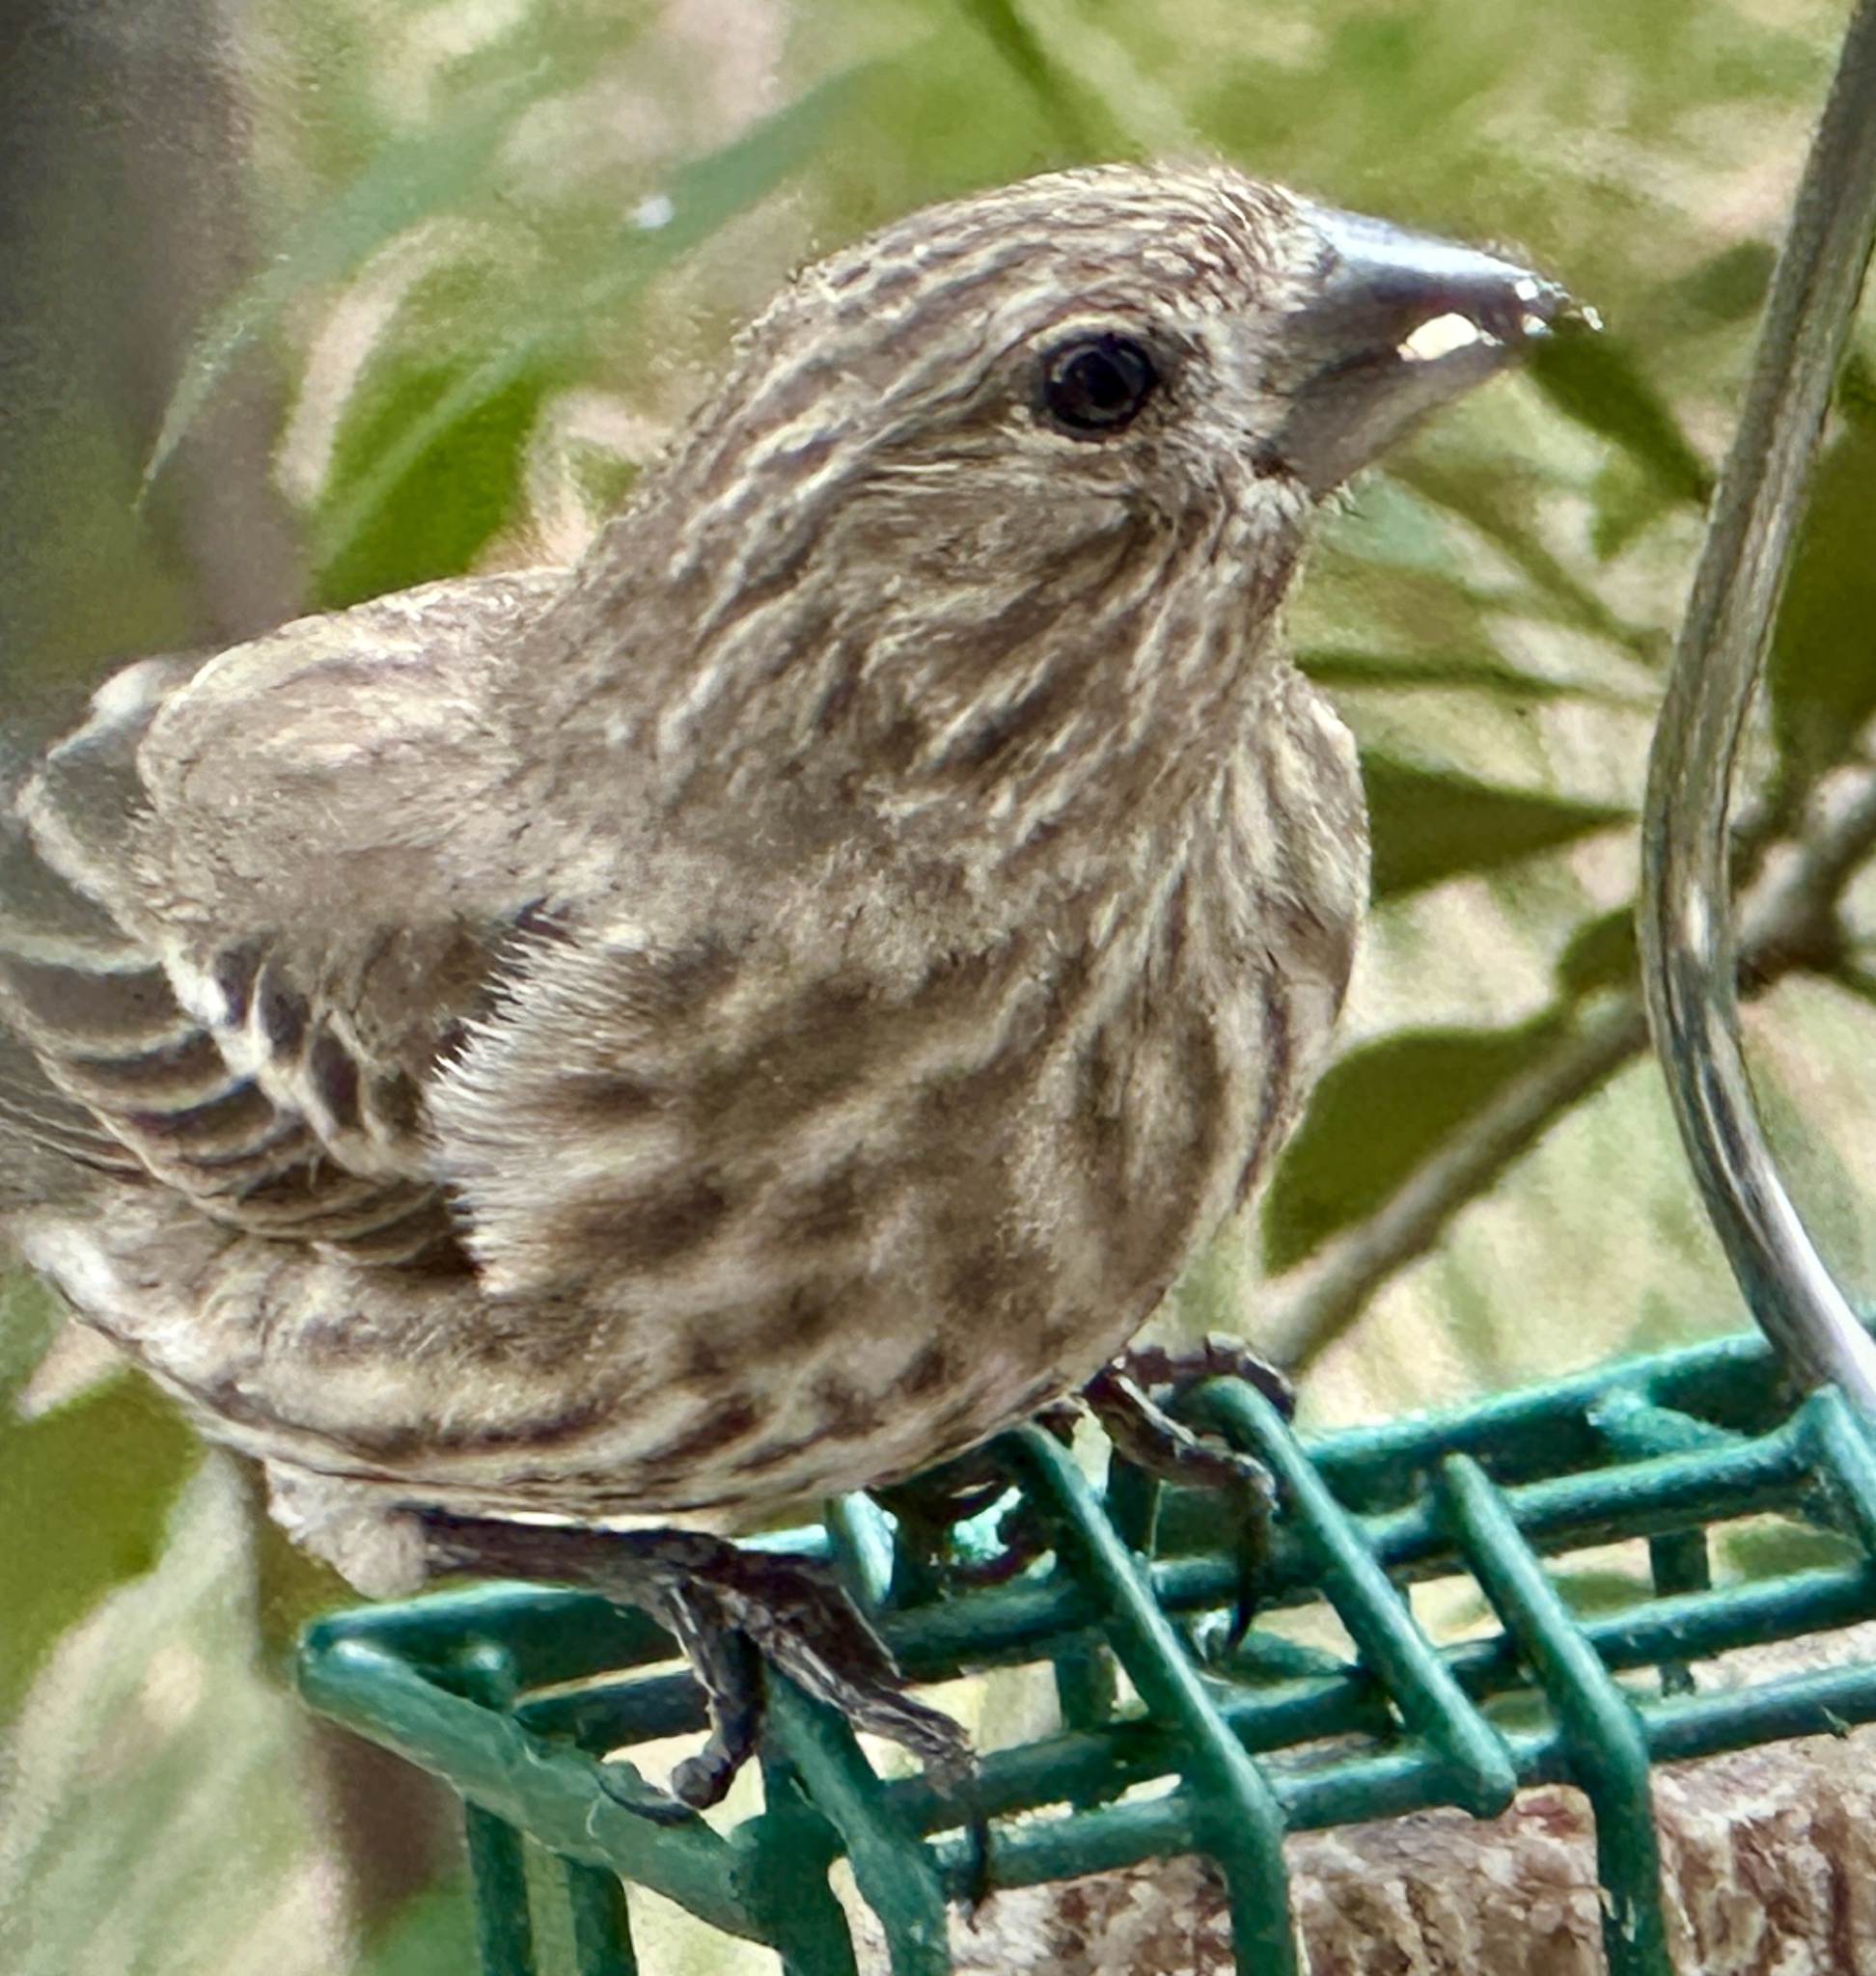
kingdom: Animalia
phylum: Chordata
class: Aves
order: Passeriformes
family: Fringillidae
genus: Haemorhous
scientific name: Haemorhous mexicanus
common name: House finch
